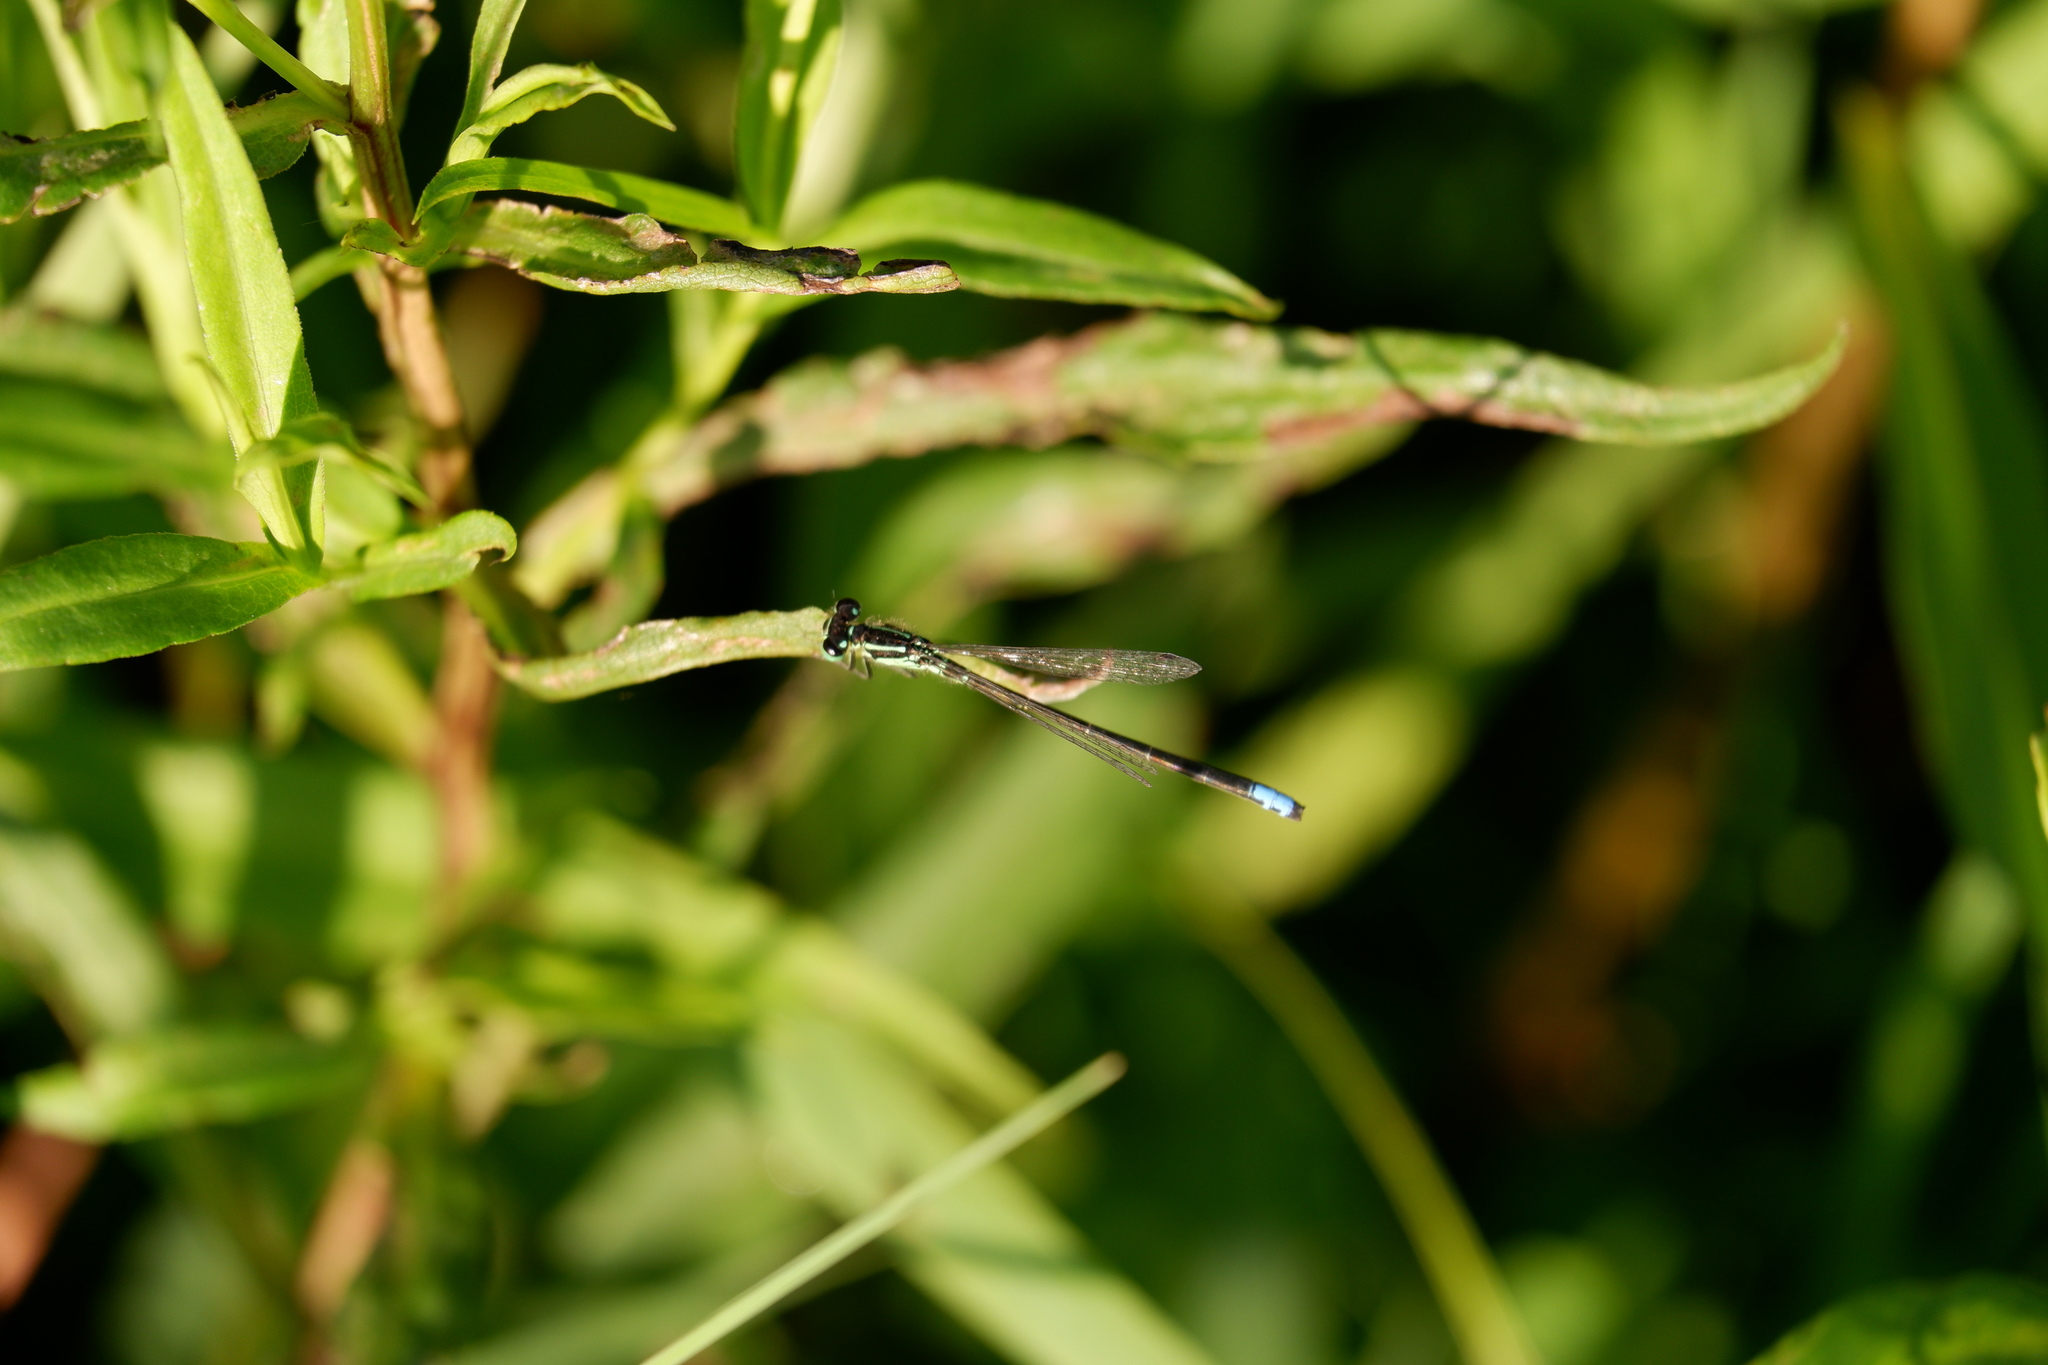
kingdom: Animalia
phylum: Arthropoda
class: Insecta
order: Odonata
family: Coenagrionidae
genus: Ischnura
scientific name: Ischnura verticalis
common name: Eastern forktail
